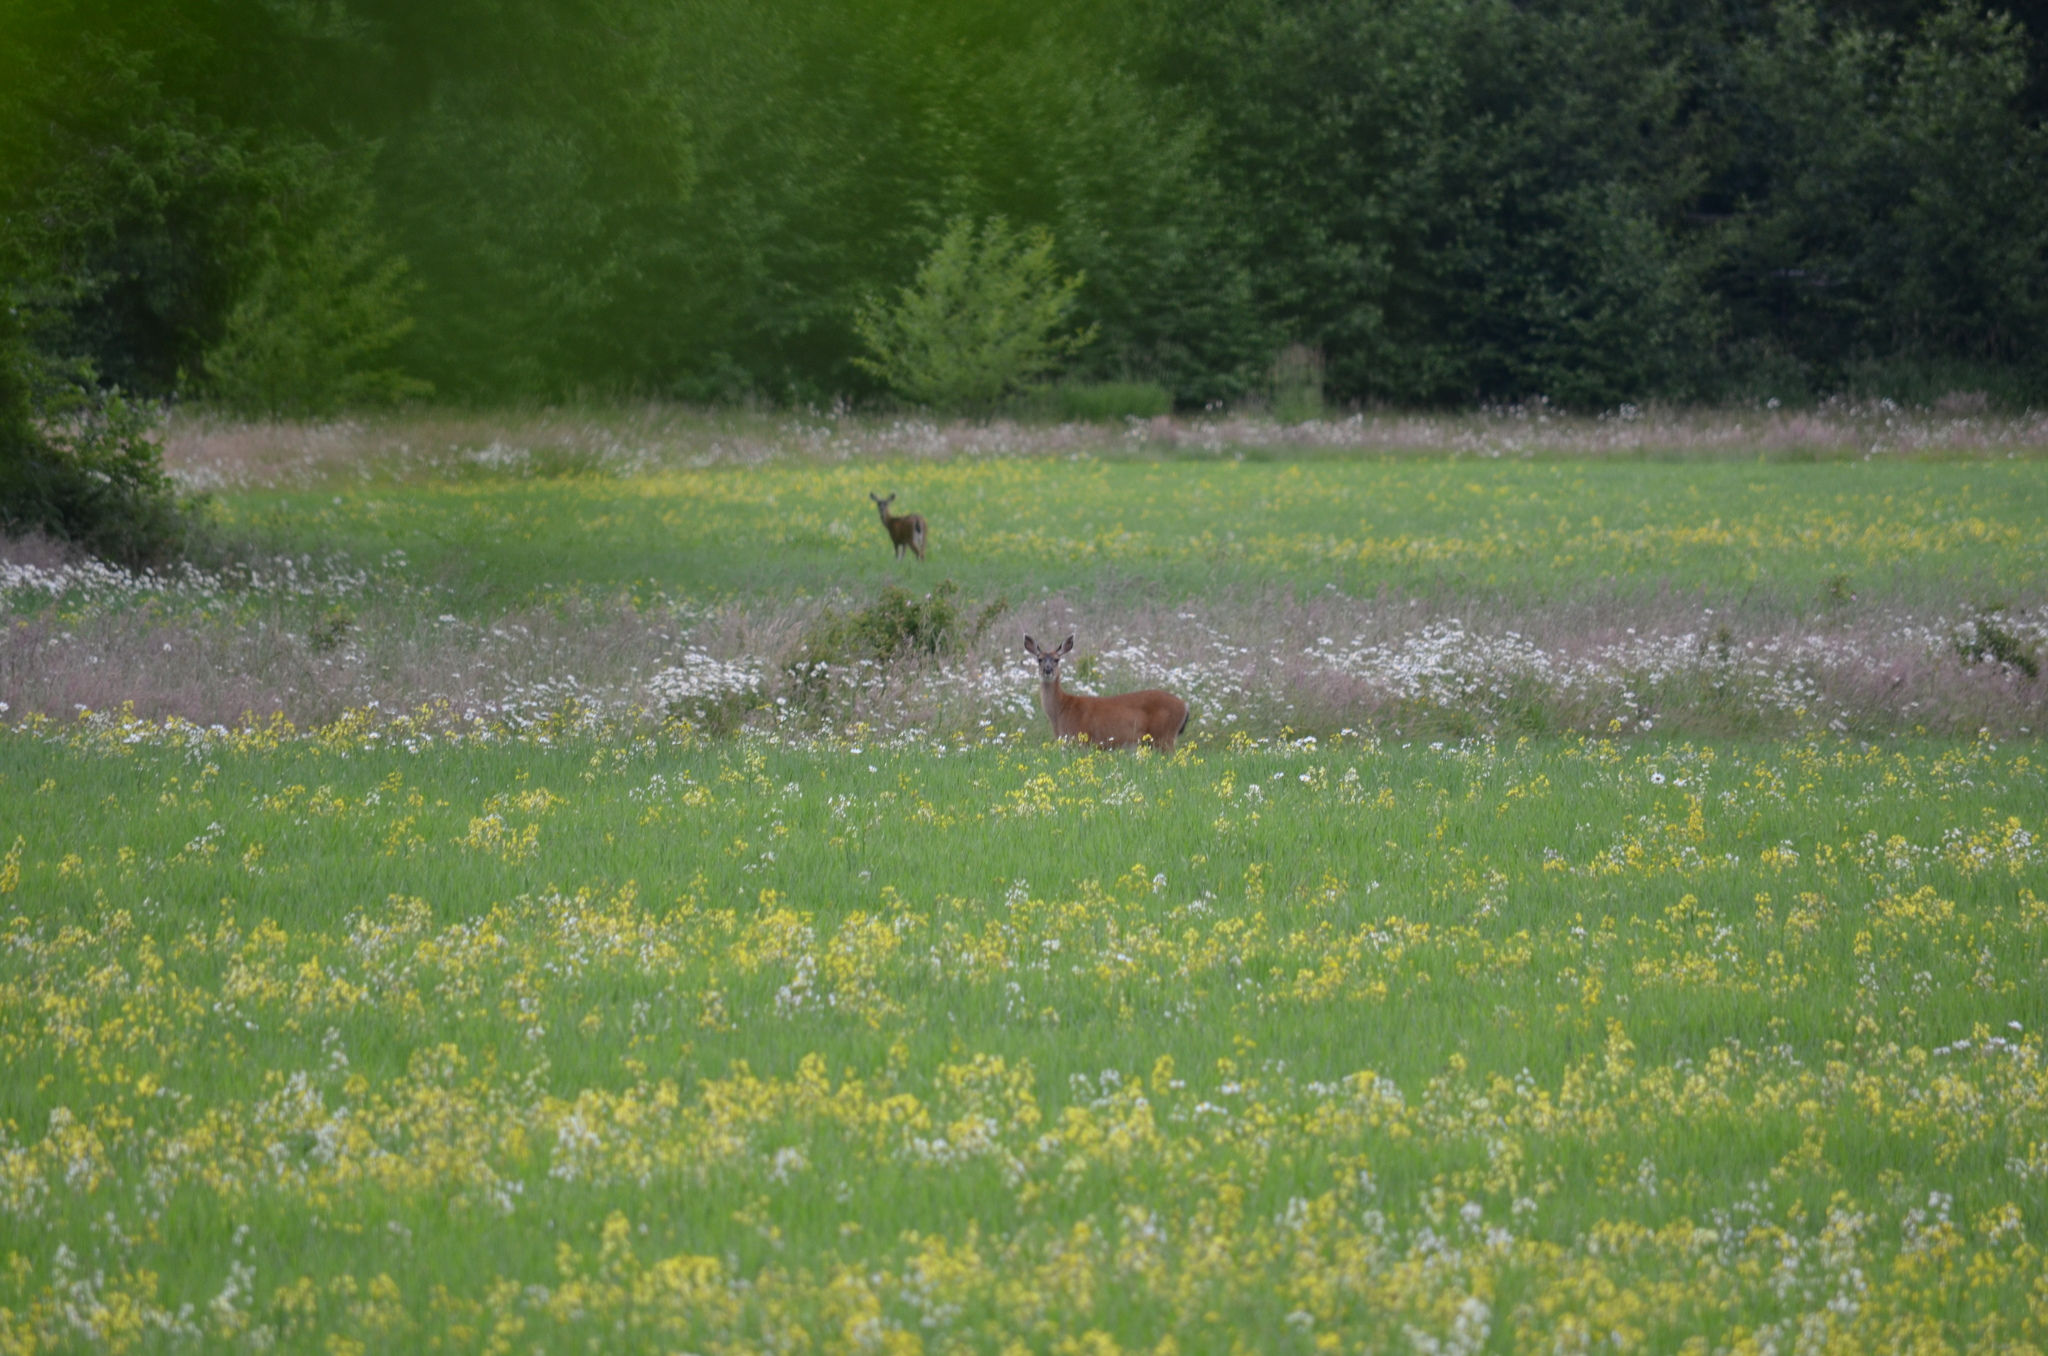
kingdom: Animalia
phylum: Chordata
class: Mammalia
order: Artiodactyla
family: Cervidae
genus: Odocoileus
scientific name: Odocoileus hemionus
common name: Mule deer
